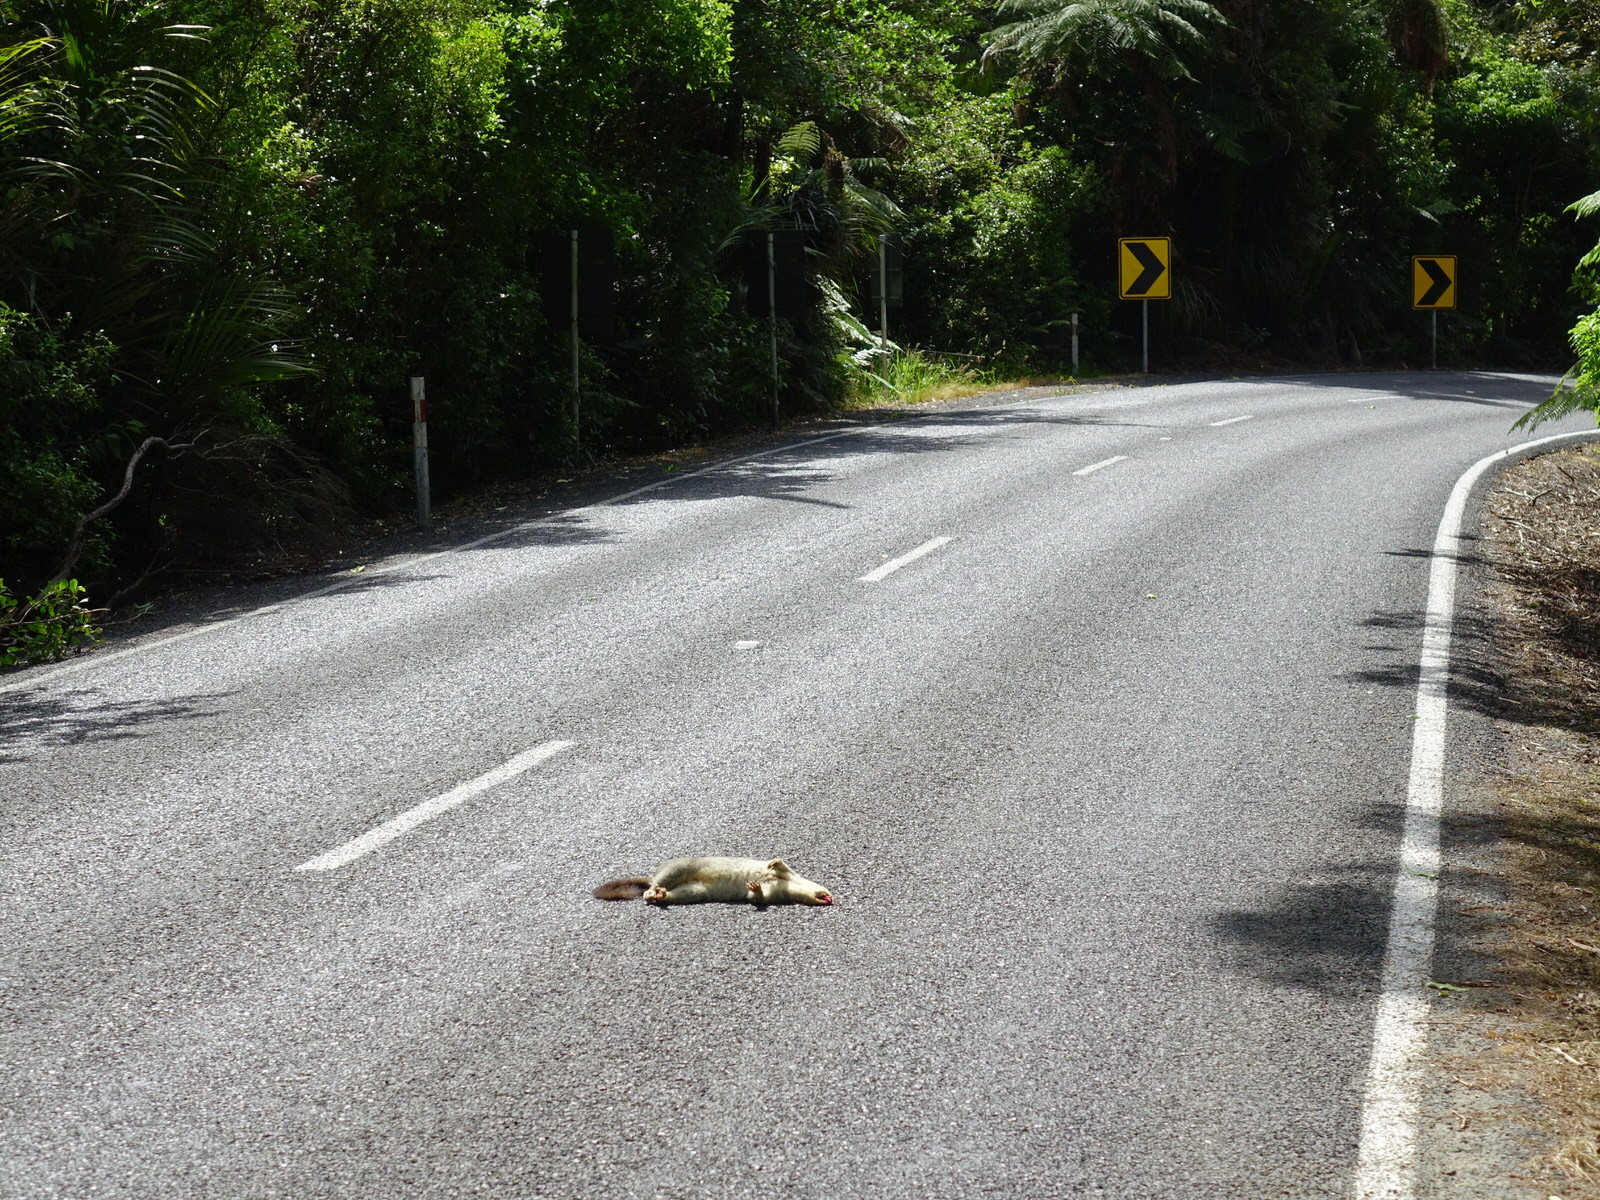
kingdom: Animalia
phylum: Chordata
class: Mammalia
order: Diprotodontia
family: Phalangeridae
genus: Trichosurus
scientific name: Trichosurus vulpecula
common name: Common brushtail
